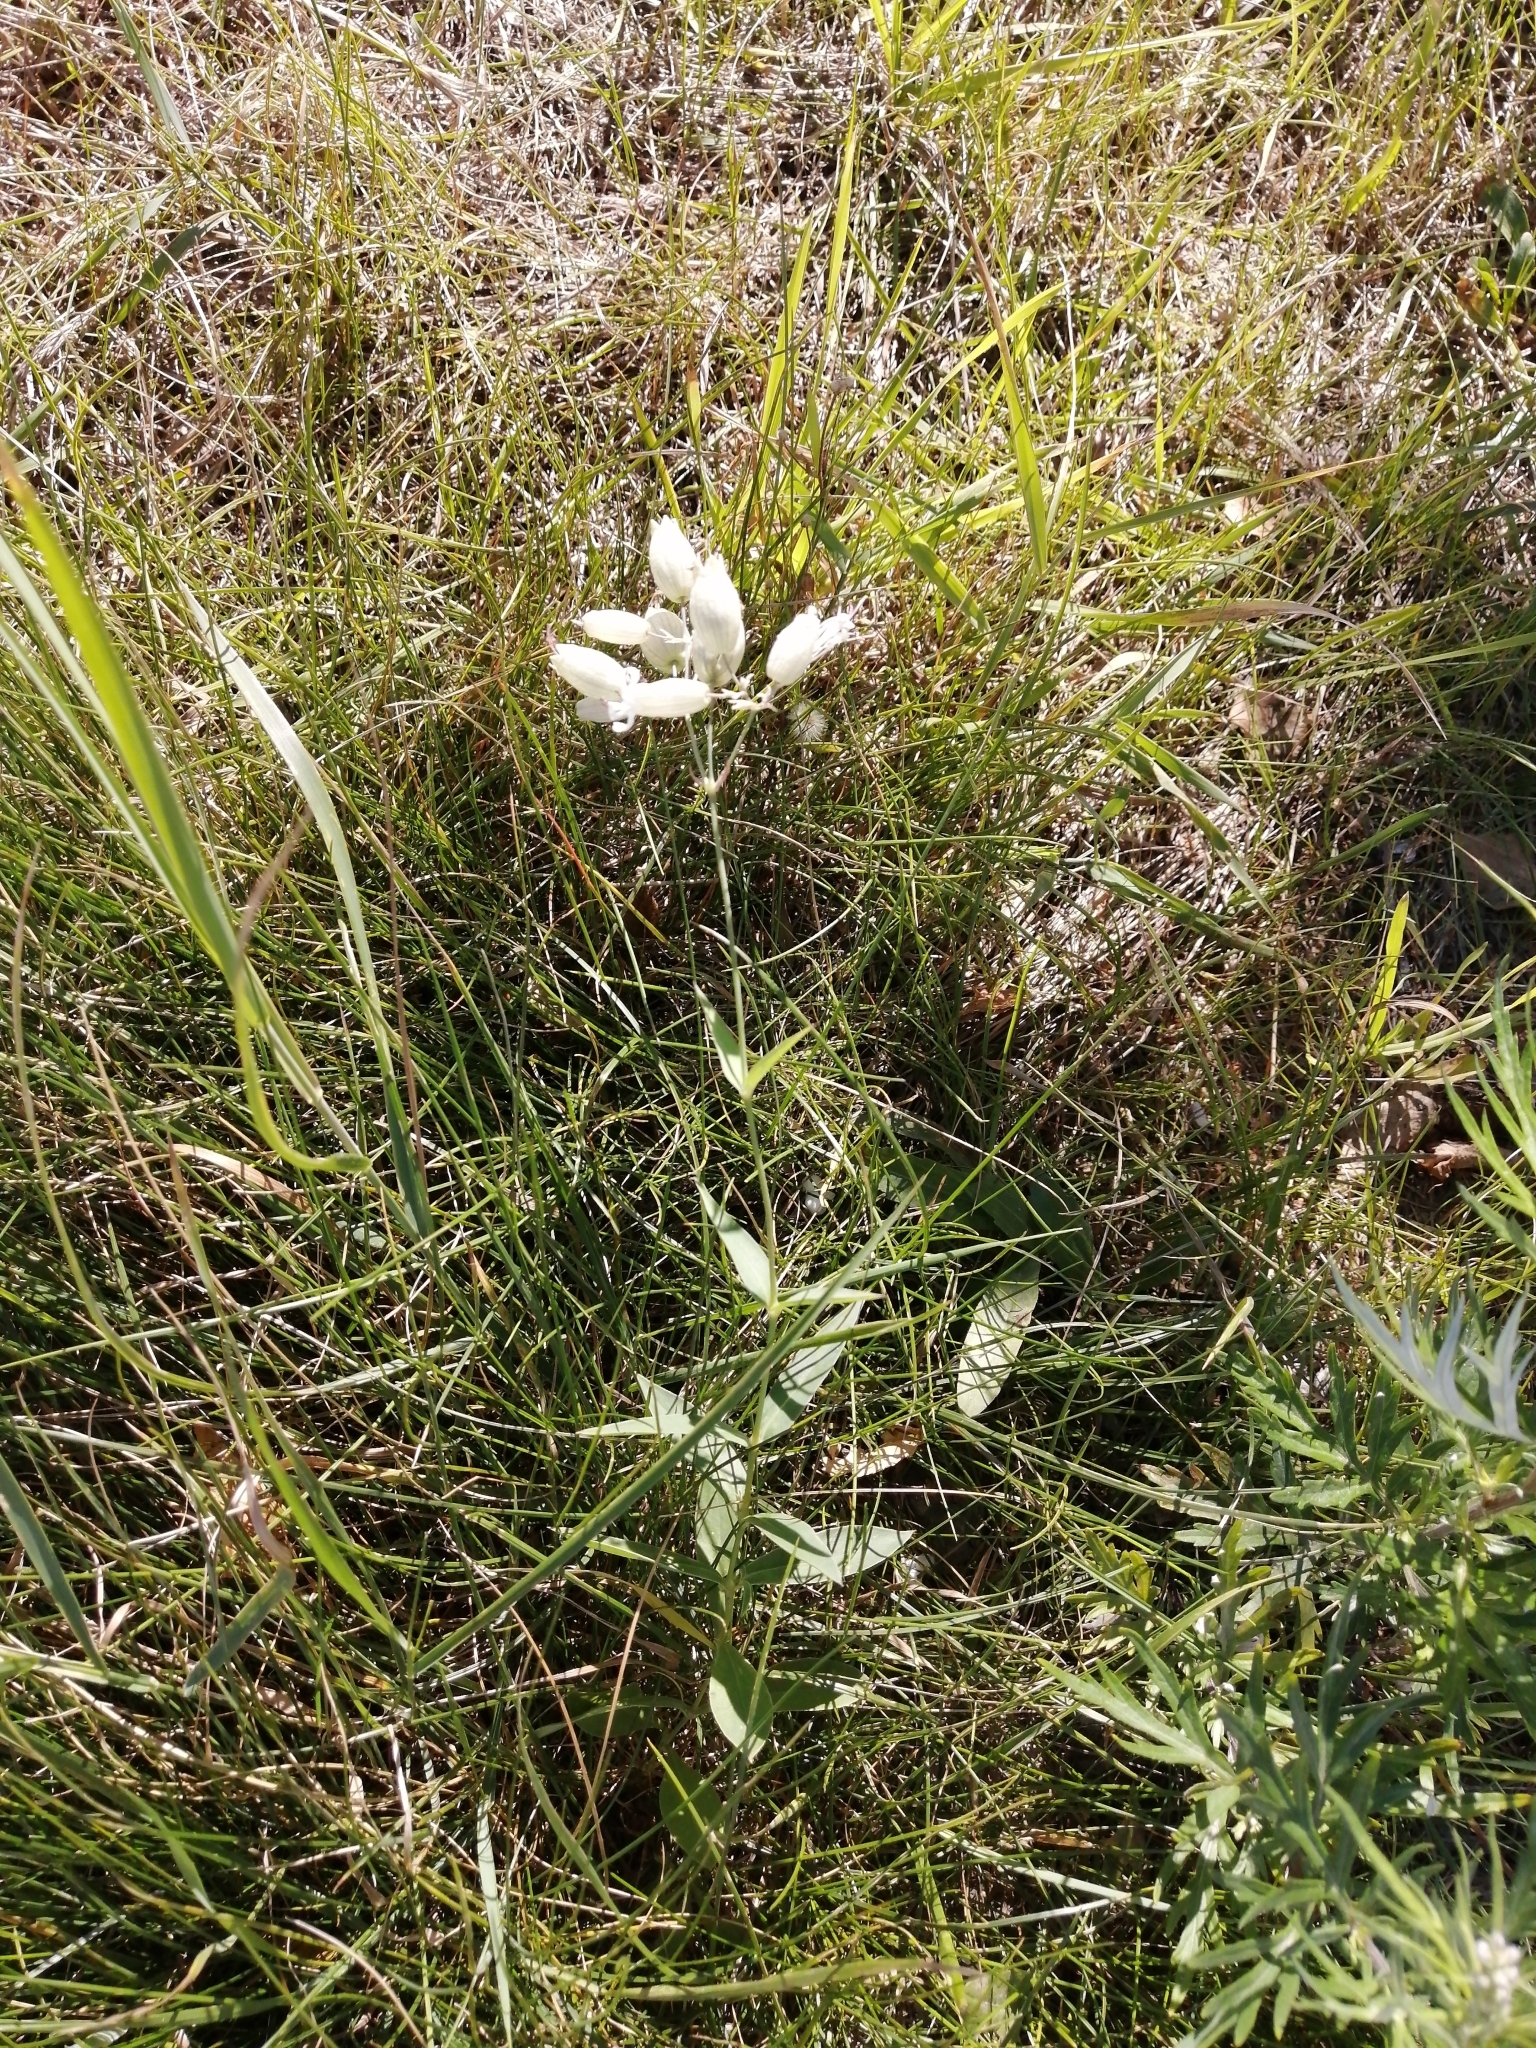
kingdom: Plantae
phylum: Tracheophyta
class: Magnoliopsida
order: Caryophyllales
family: Caryophyllaceae
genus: Silene
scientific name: Silene vulgaris
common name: Bladder campion
